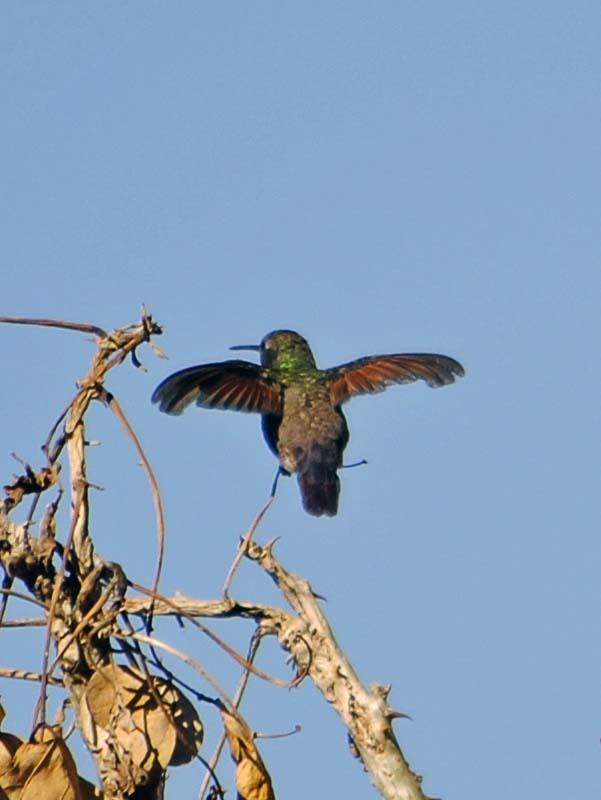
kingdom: Animalia
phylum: Chordata
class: Aves
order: Apodiformes
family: Trochilidae
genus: Saucerottia
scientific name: Saucerottia beryllina
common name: Berylline hummingbird
